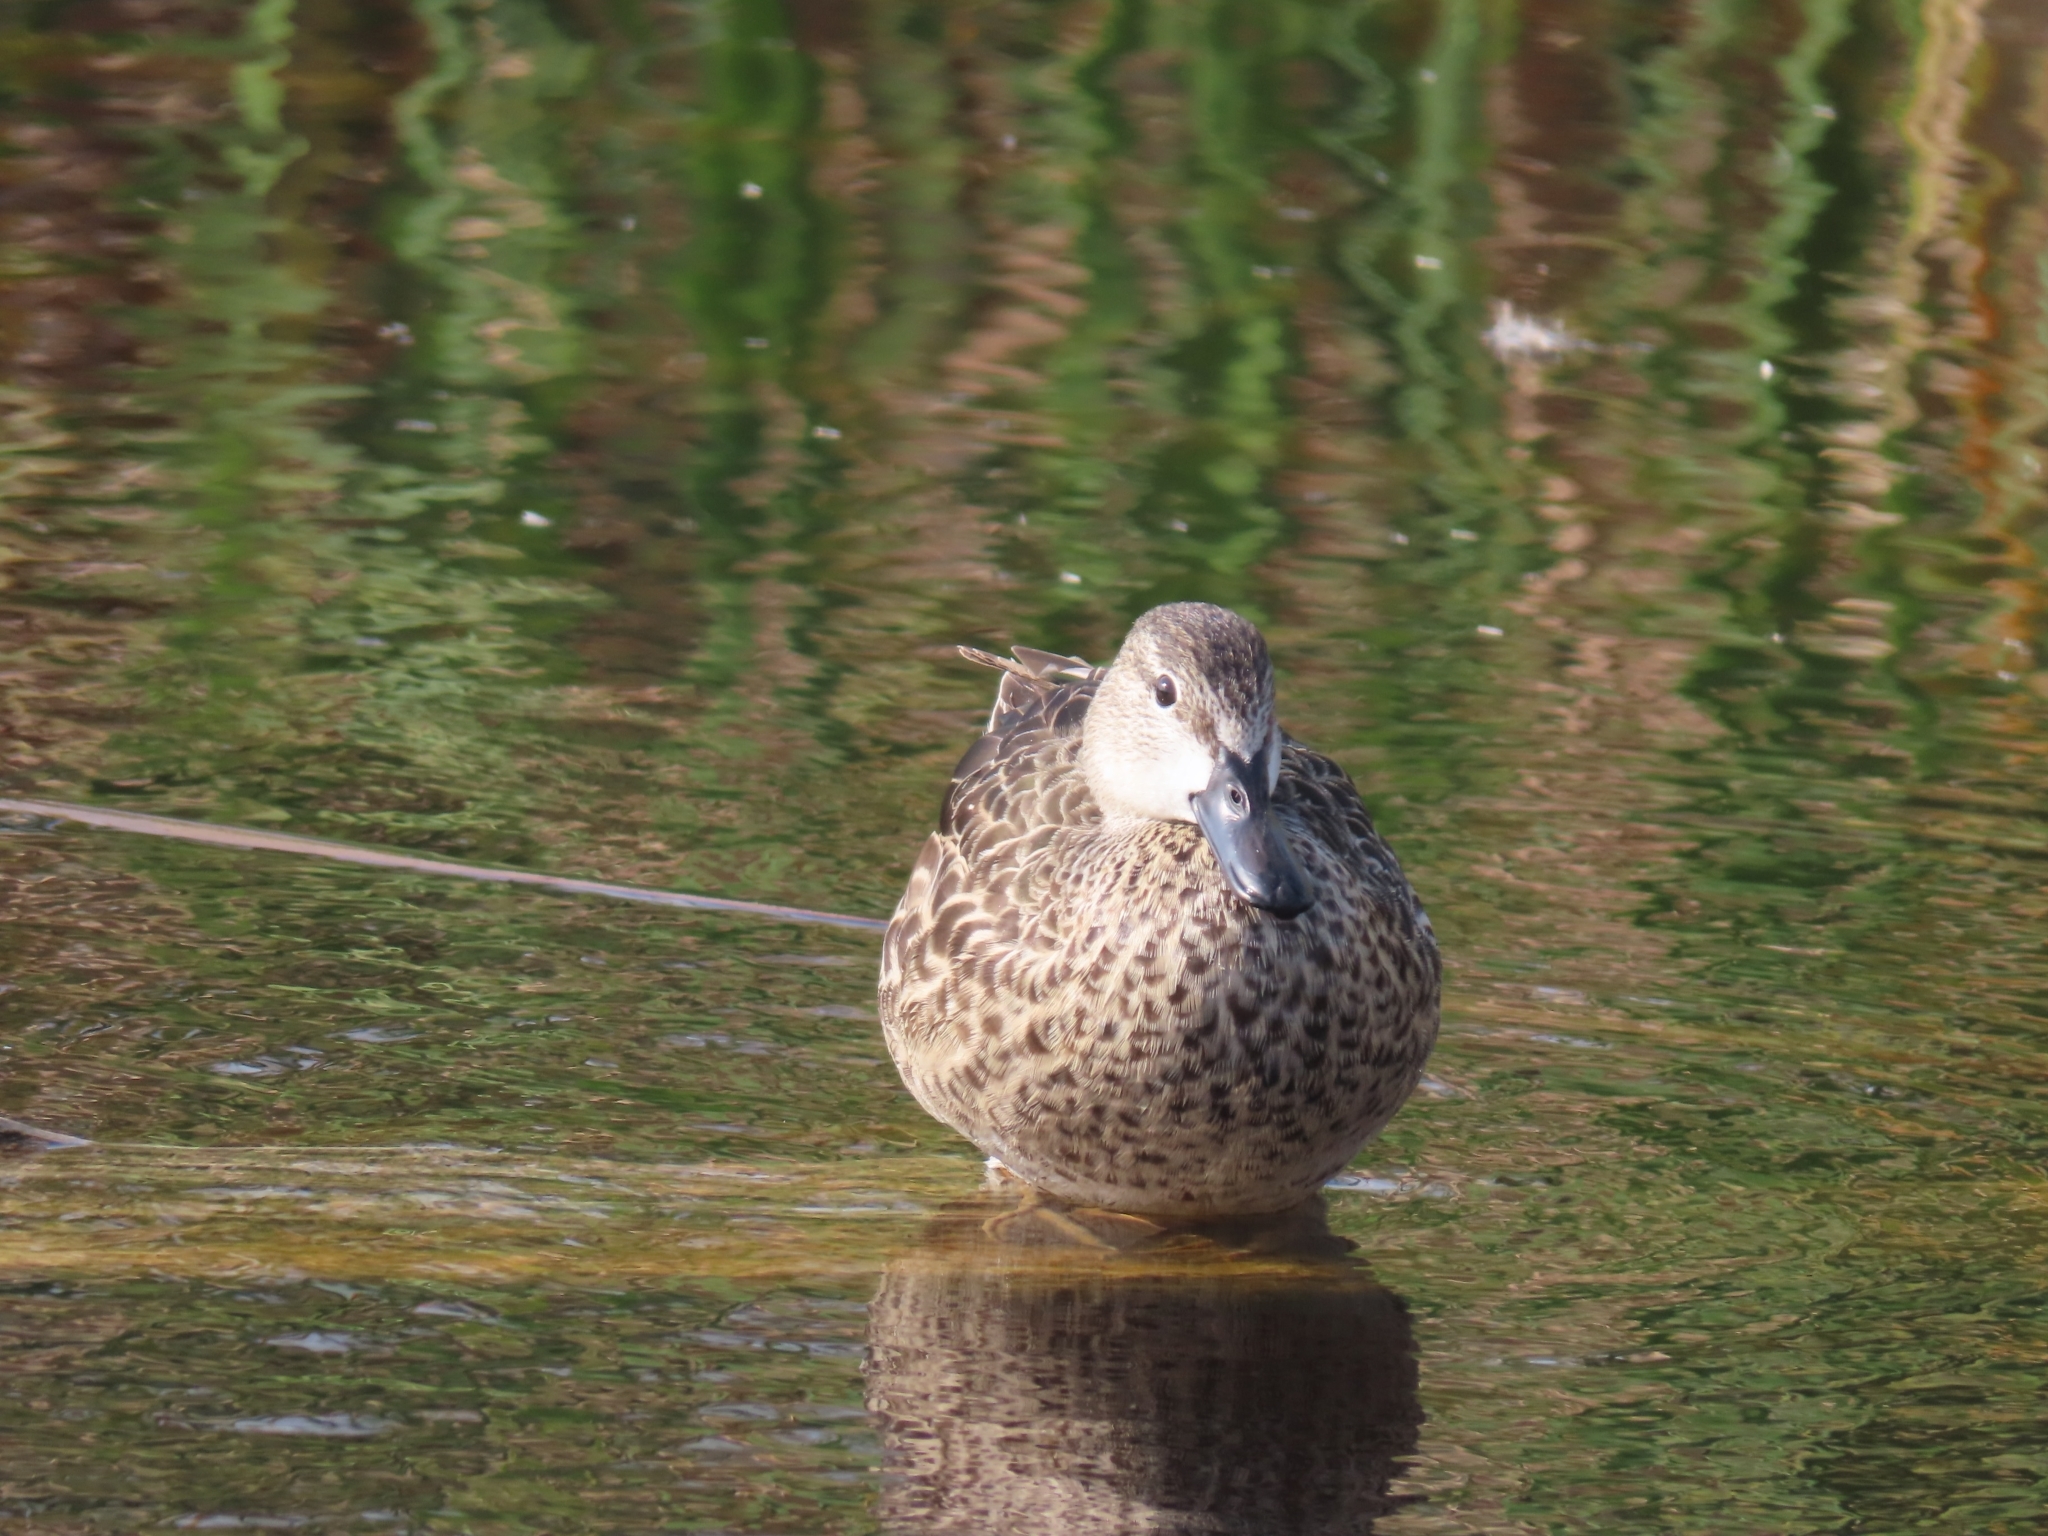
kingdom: Animalia
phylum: Chordata
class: Aves
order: Anseriformes
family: Anatidae
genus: Spatula
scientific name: Spatula discors
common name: Blue-winged teal
